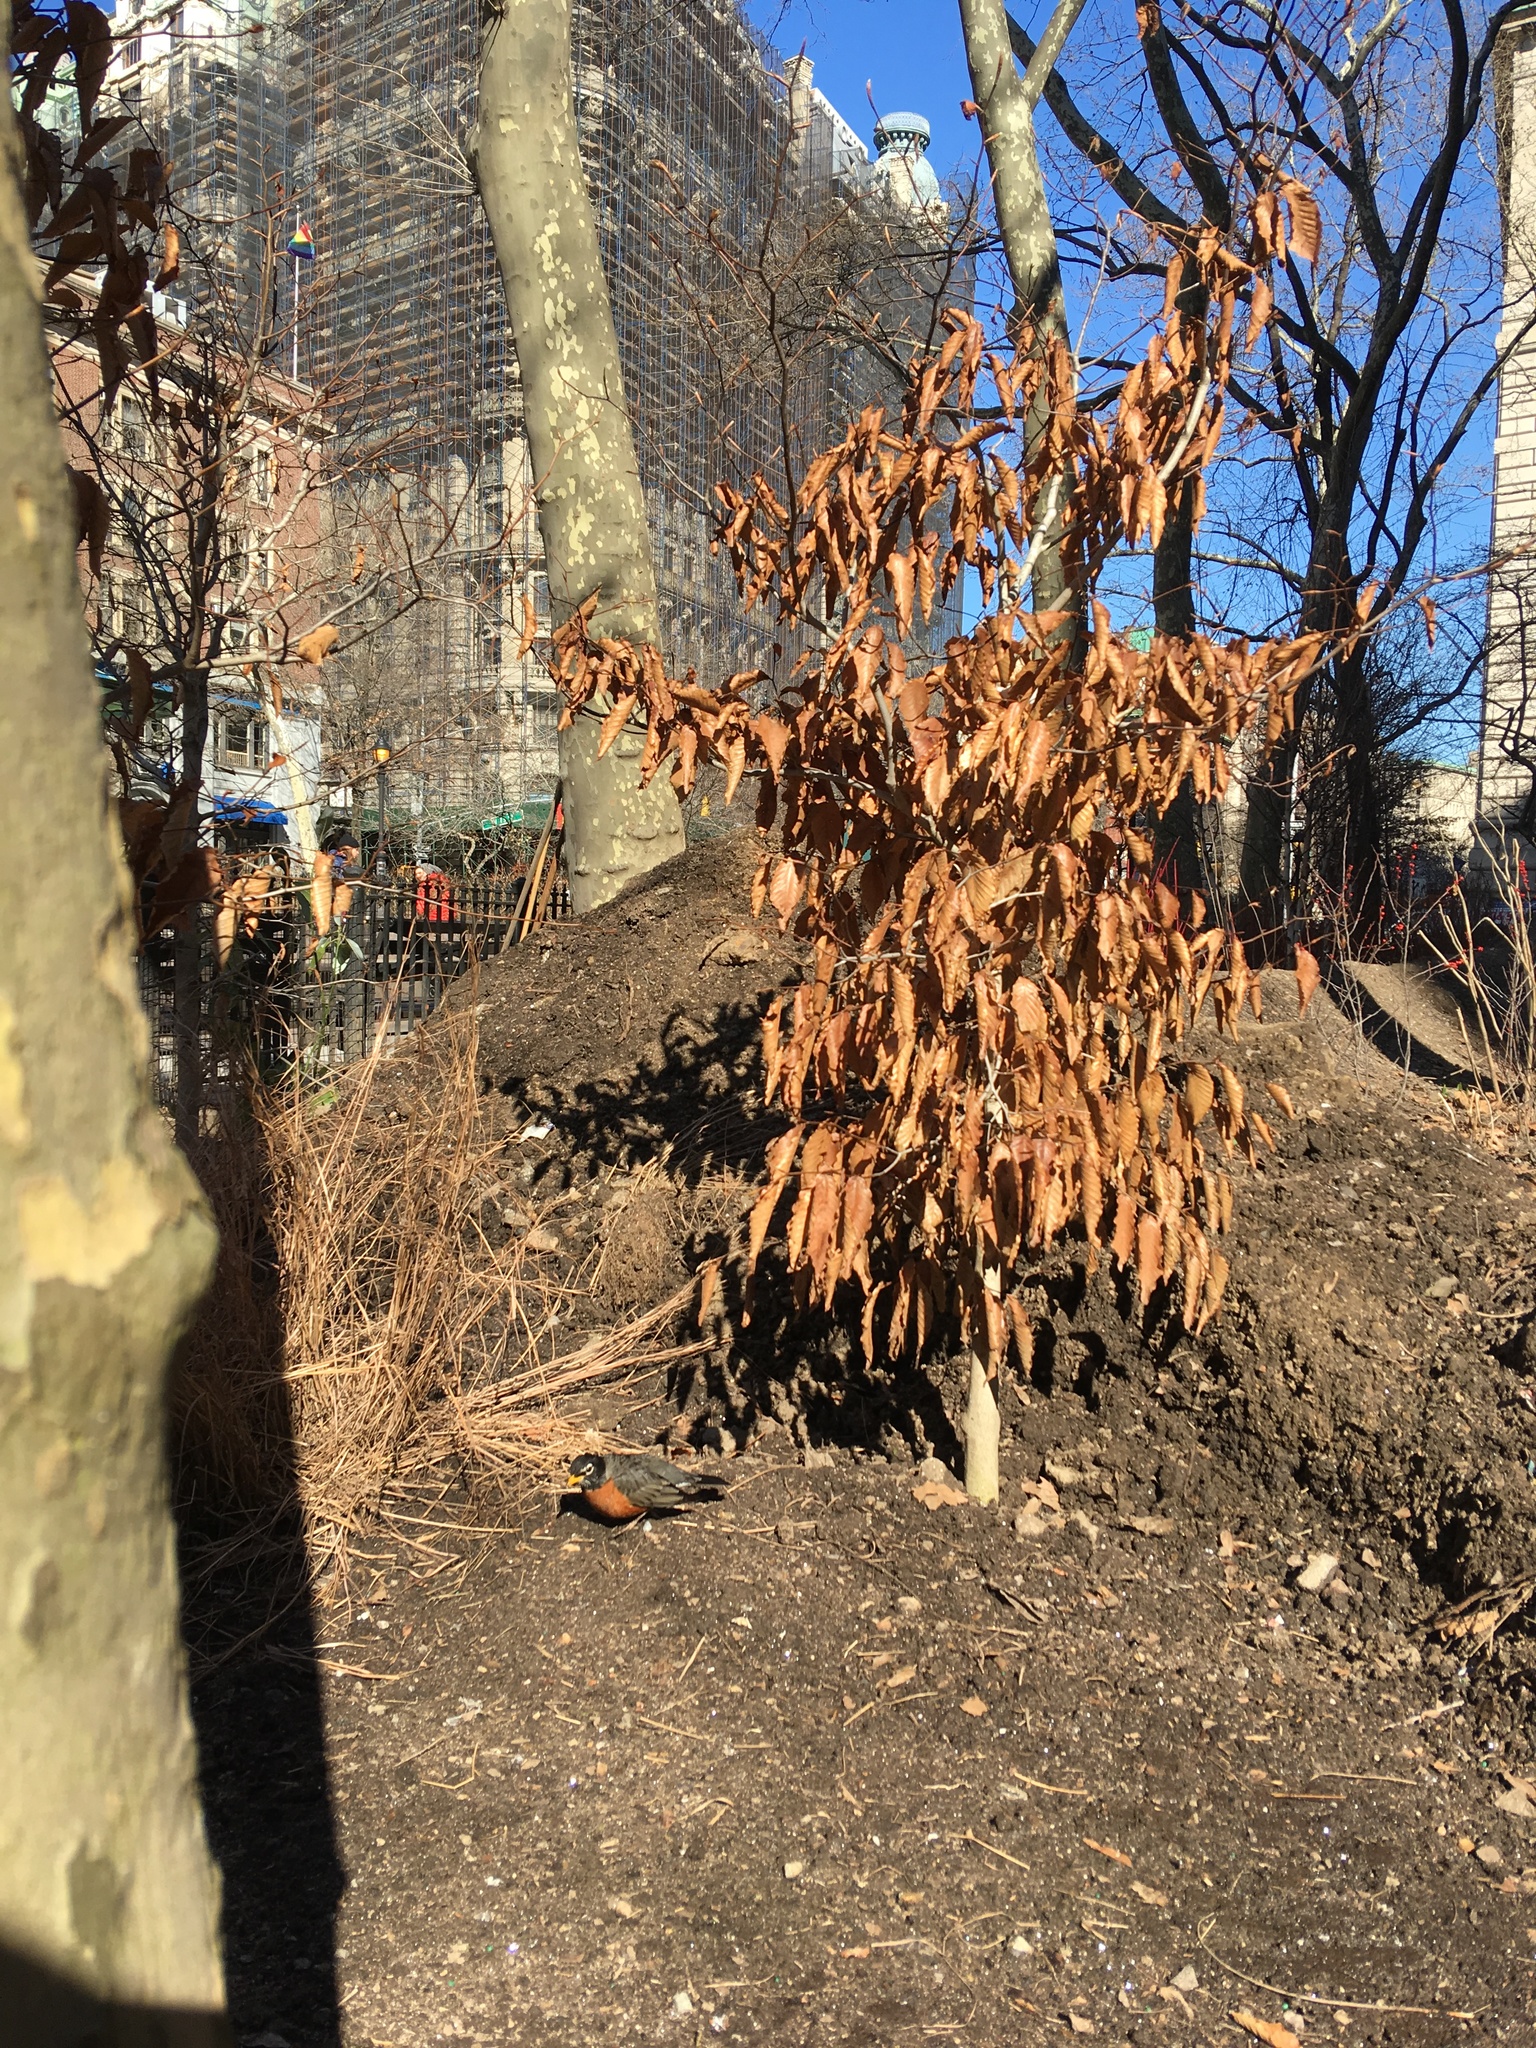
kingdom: Animalia
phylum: Chordata
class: Aves
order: Passeriformes
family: Turdidae
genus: Turdus
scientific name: Turdus migratorius
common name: American robin
